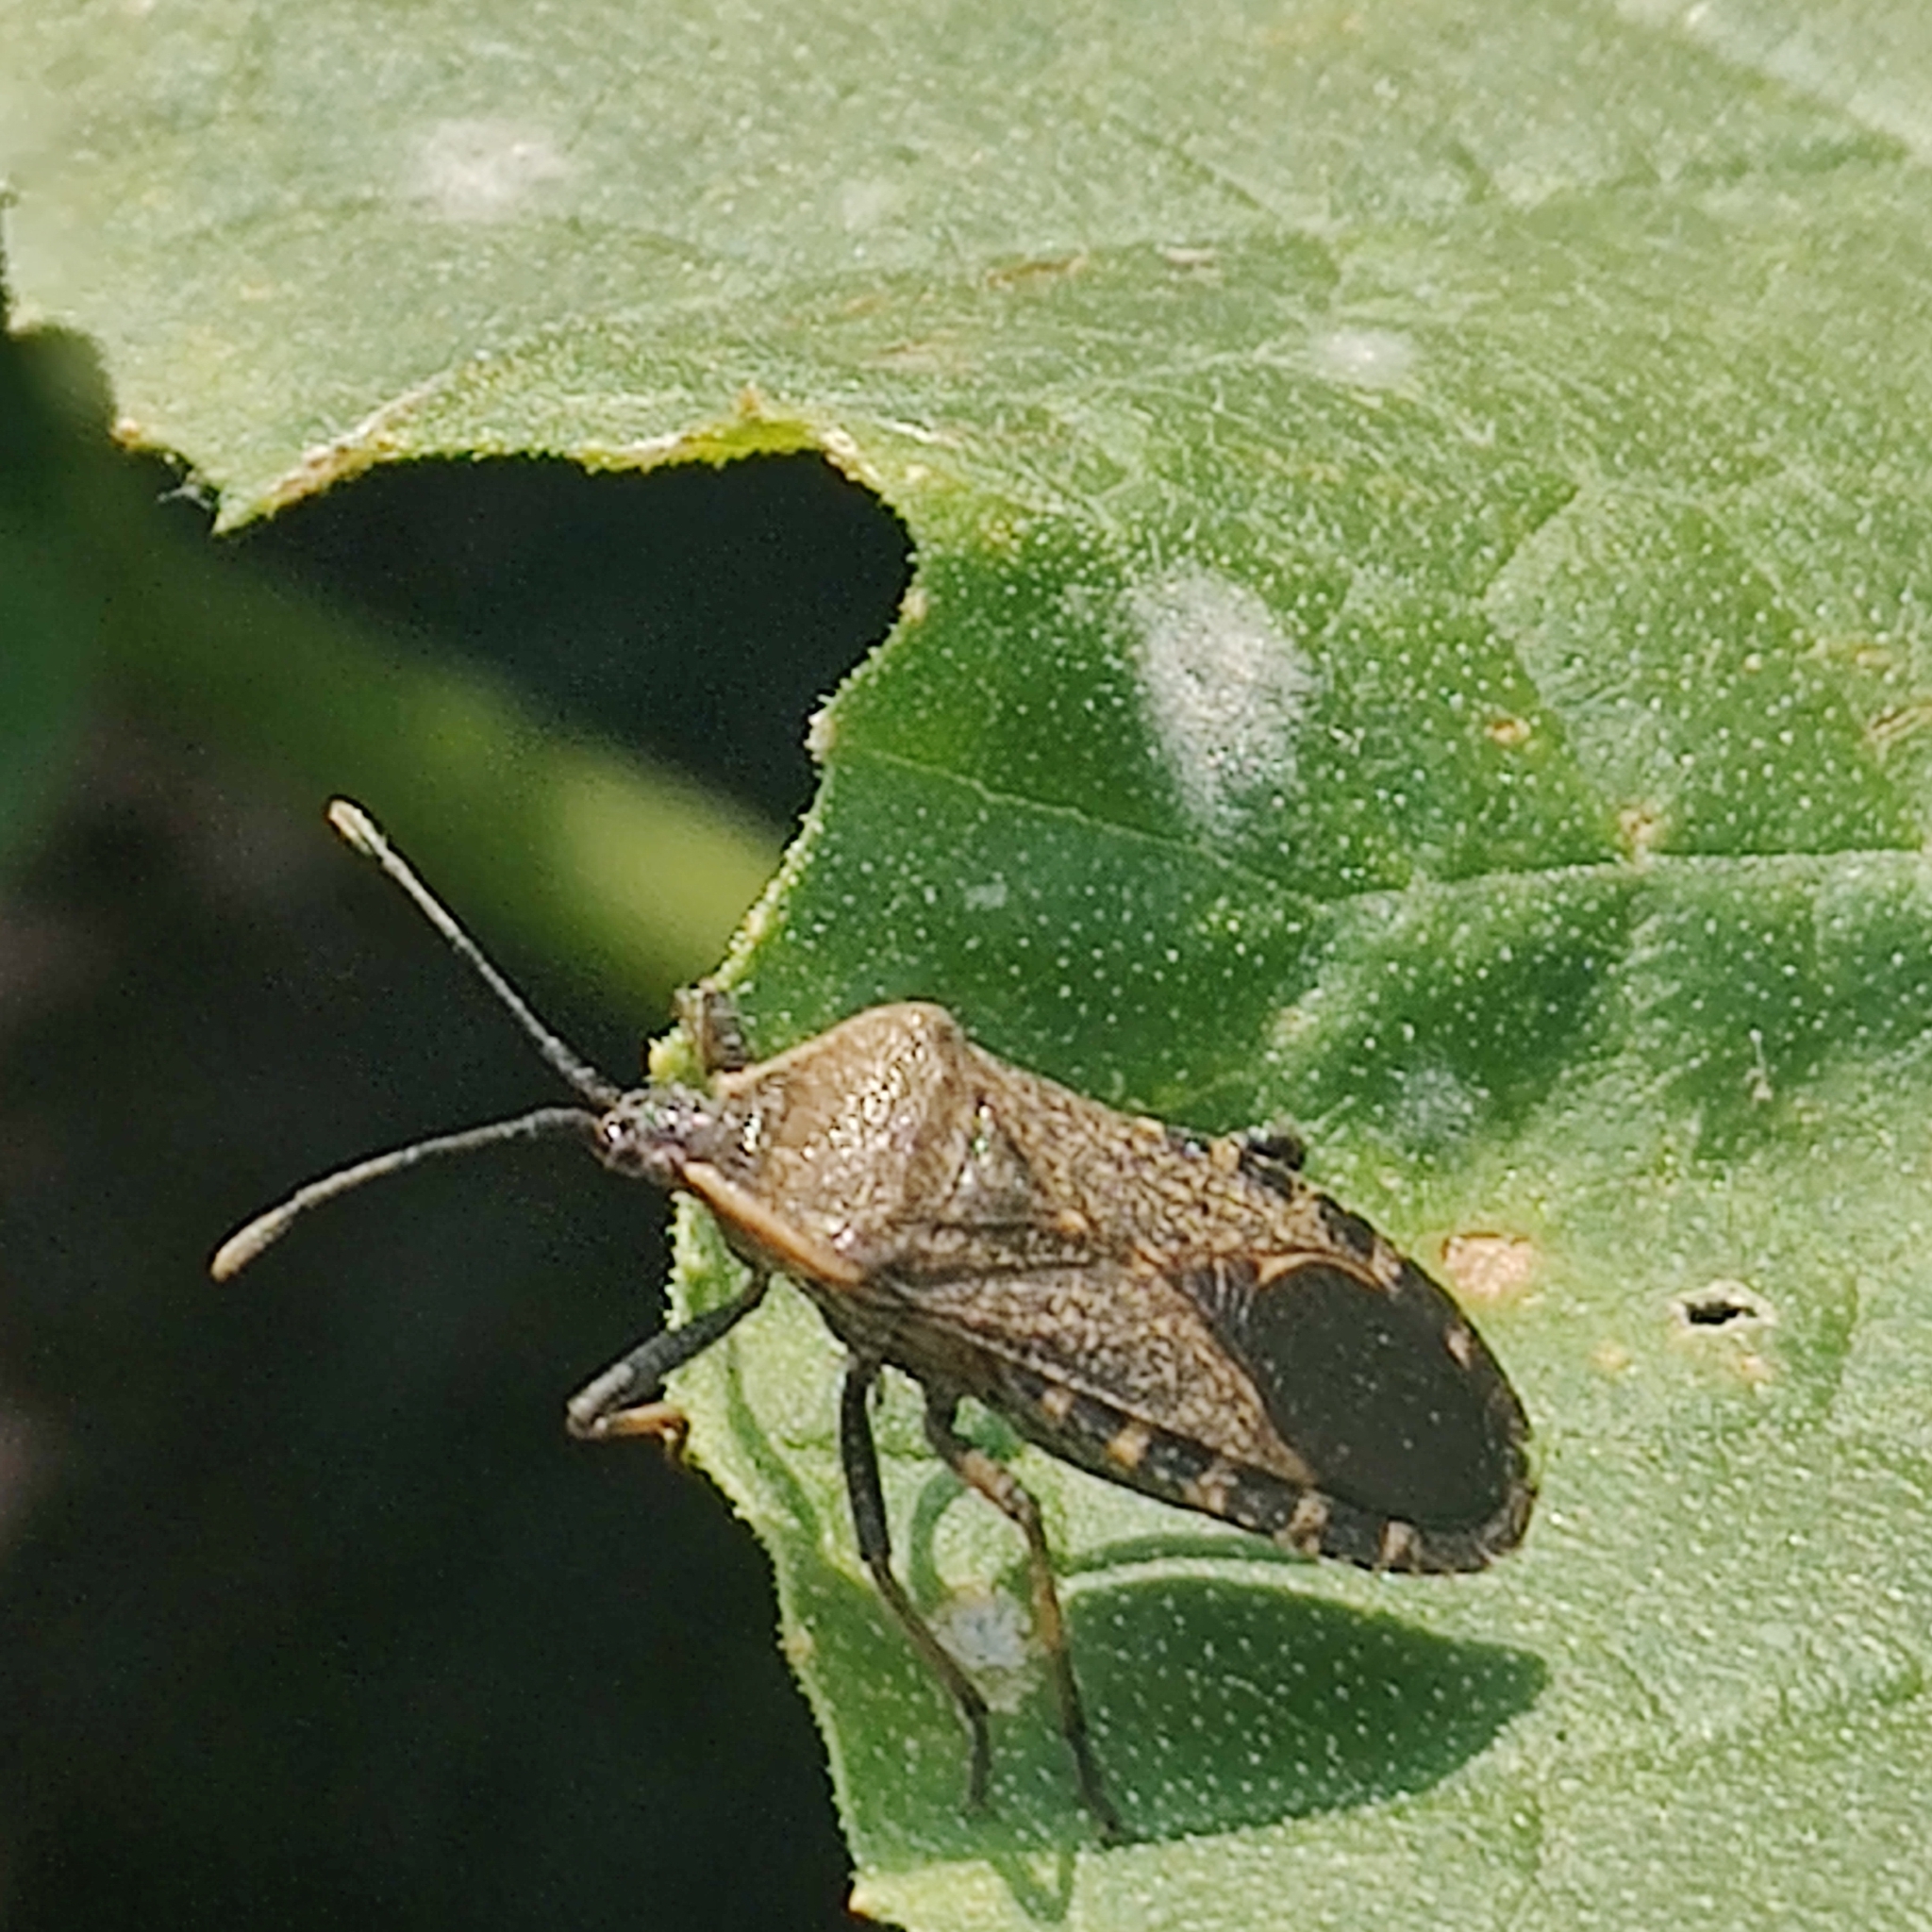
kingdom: Animalia
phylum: Arthropoda
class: Insecta
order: Hemiptera
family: Coreidae
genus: Anasa
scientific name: Anasa tristis
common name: Squash bug
